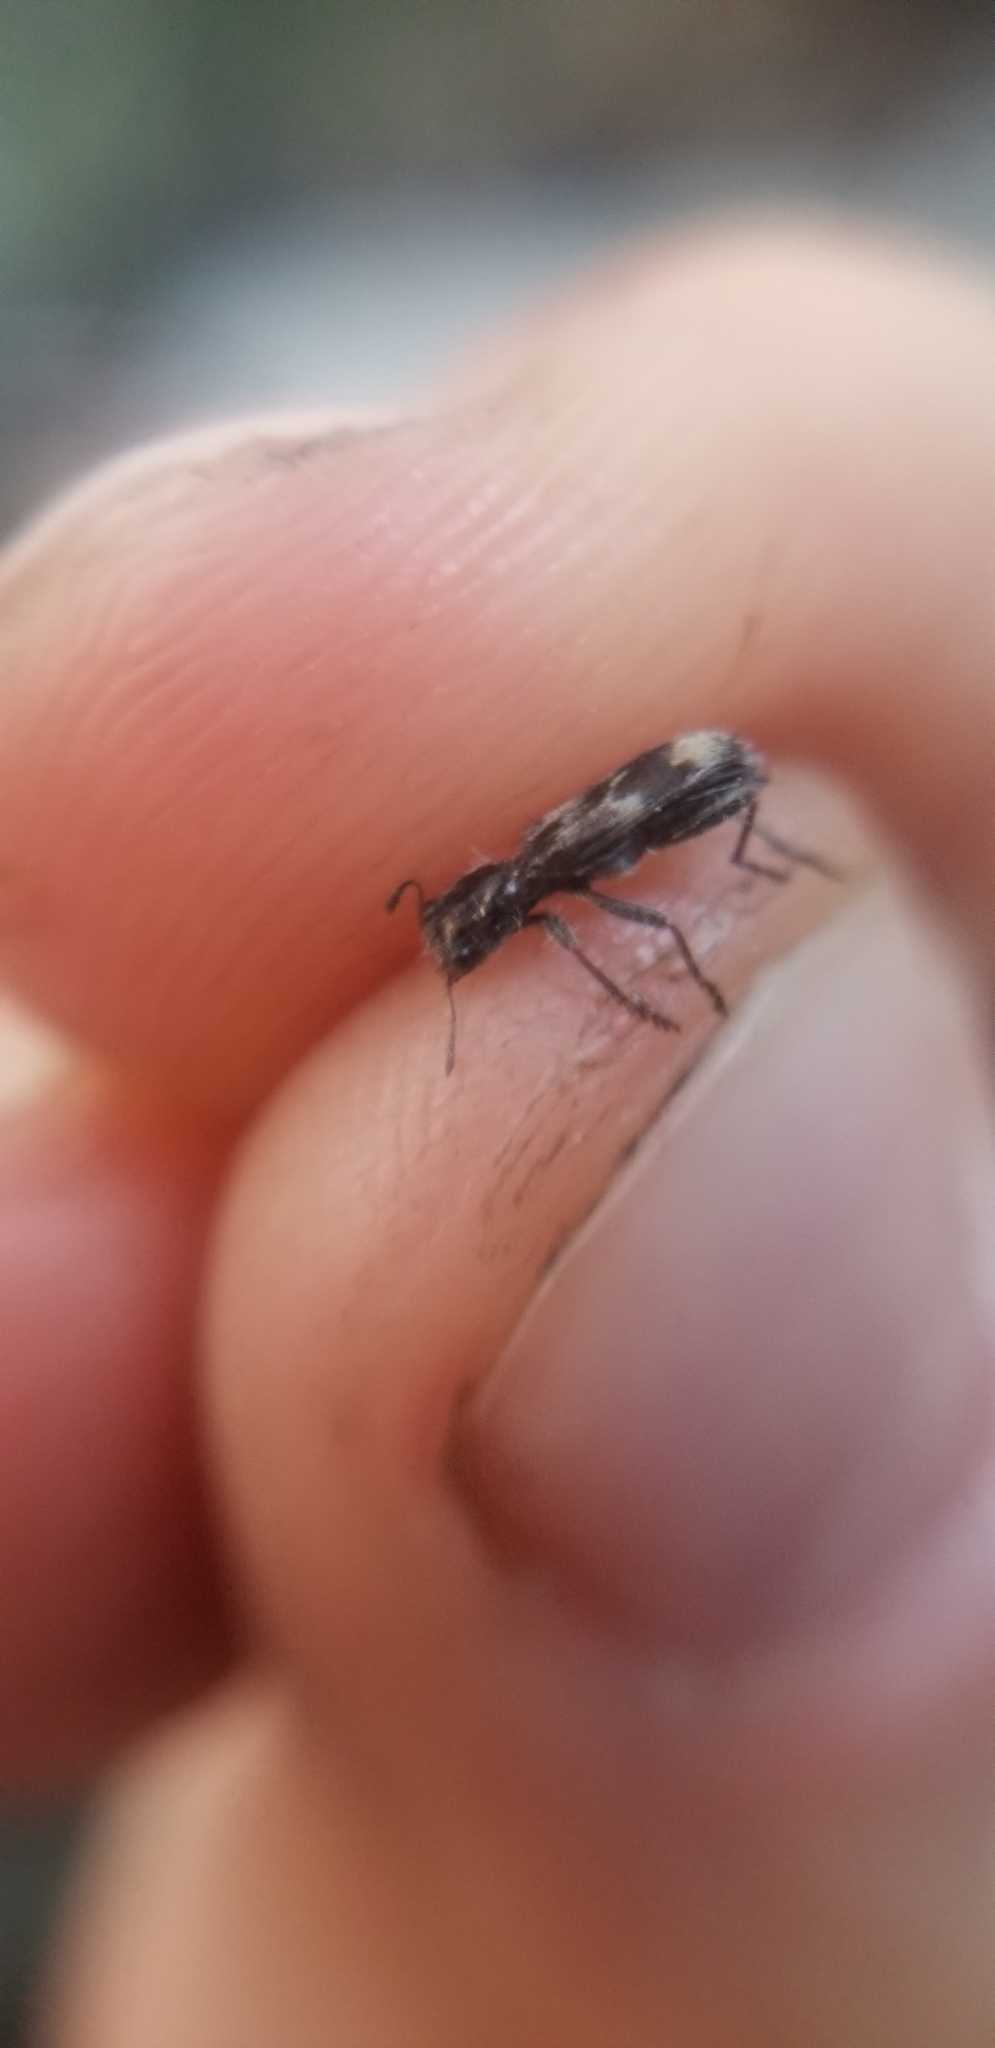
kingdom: Animalia
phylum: Arthropoda
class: Insecta
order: Coleoptera
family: Cleridae
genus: Enoclerus
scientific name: Enoclerus lecontei
